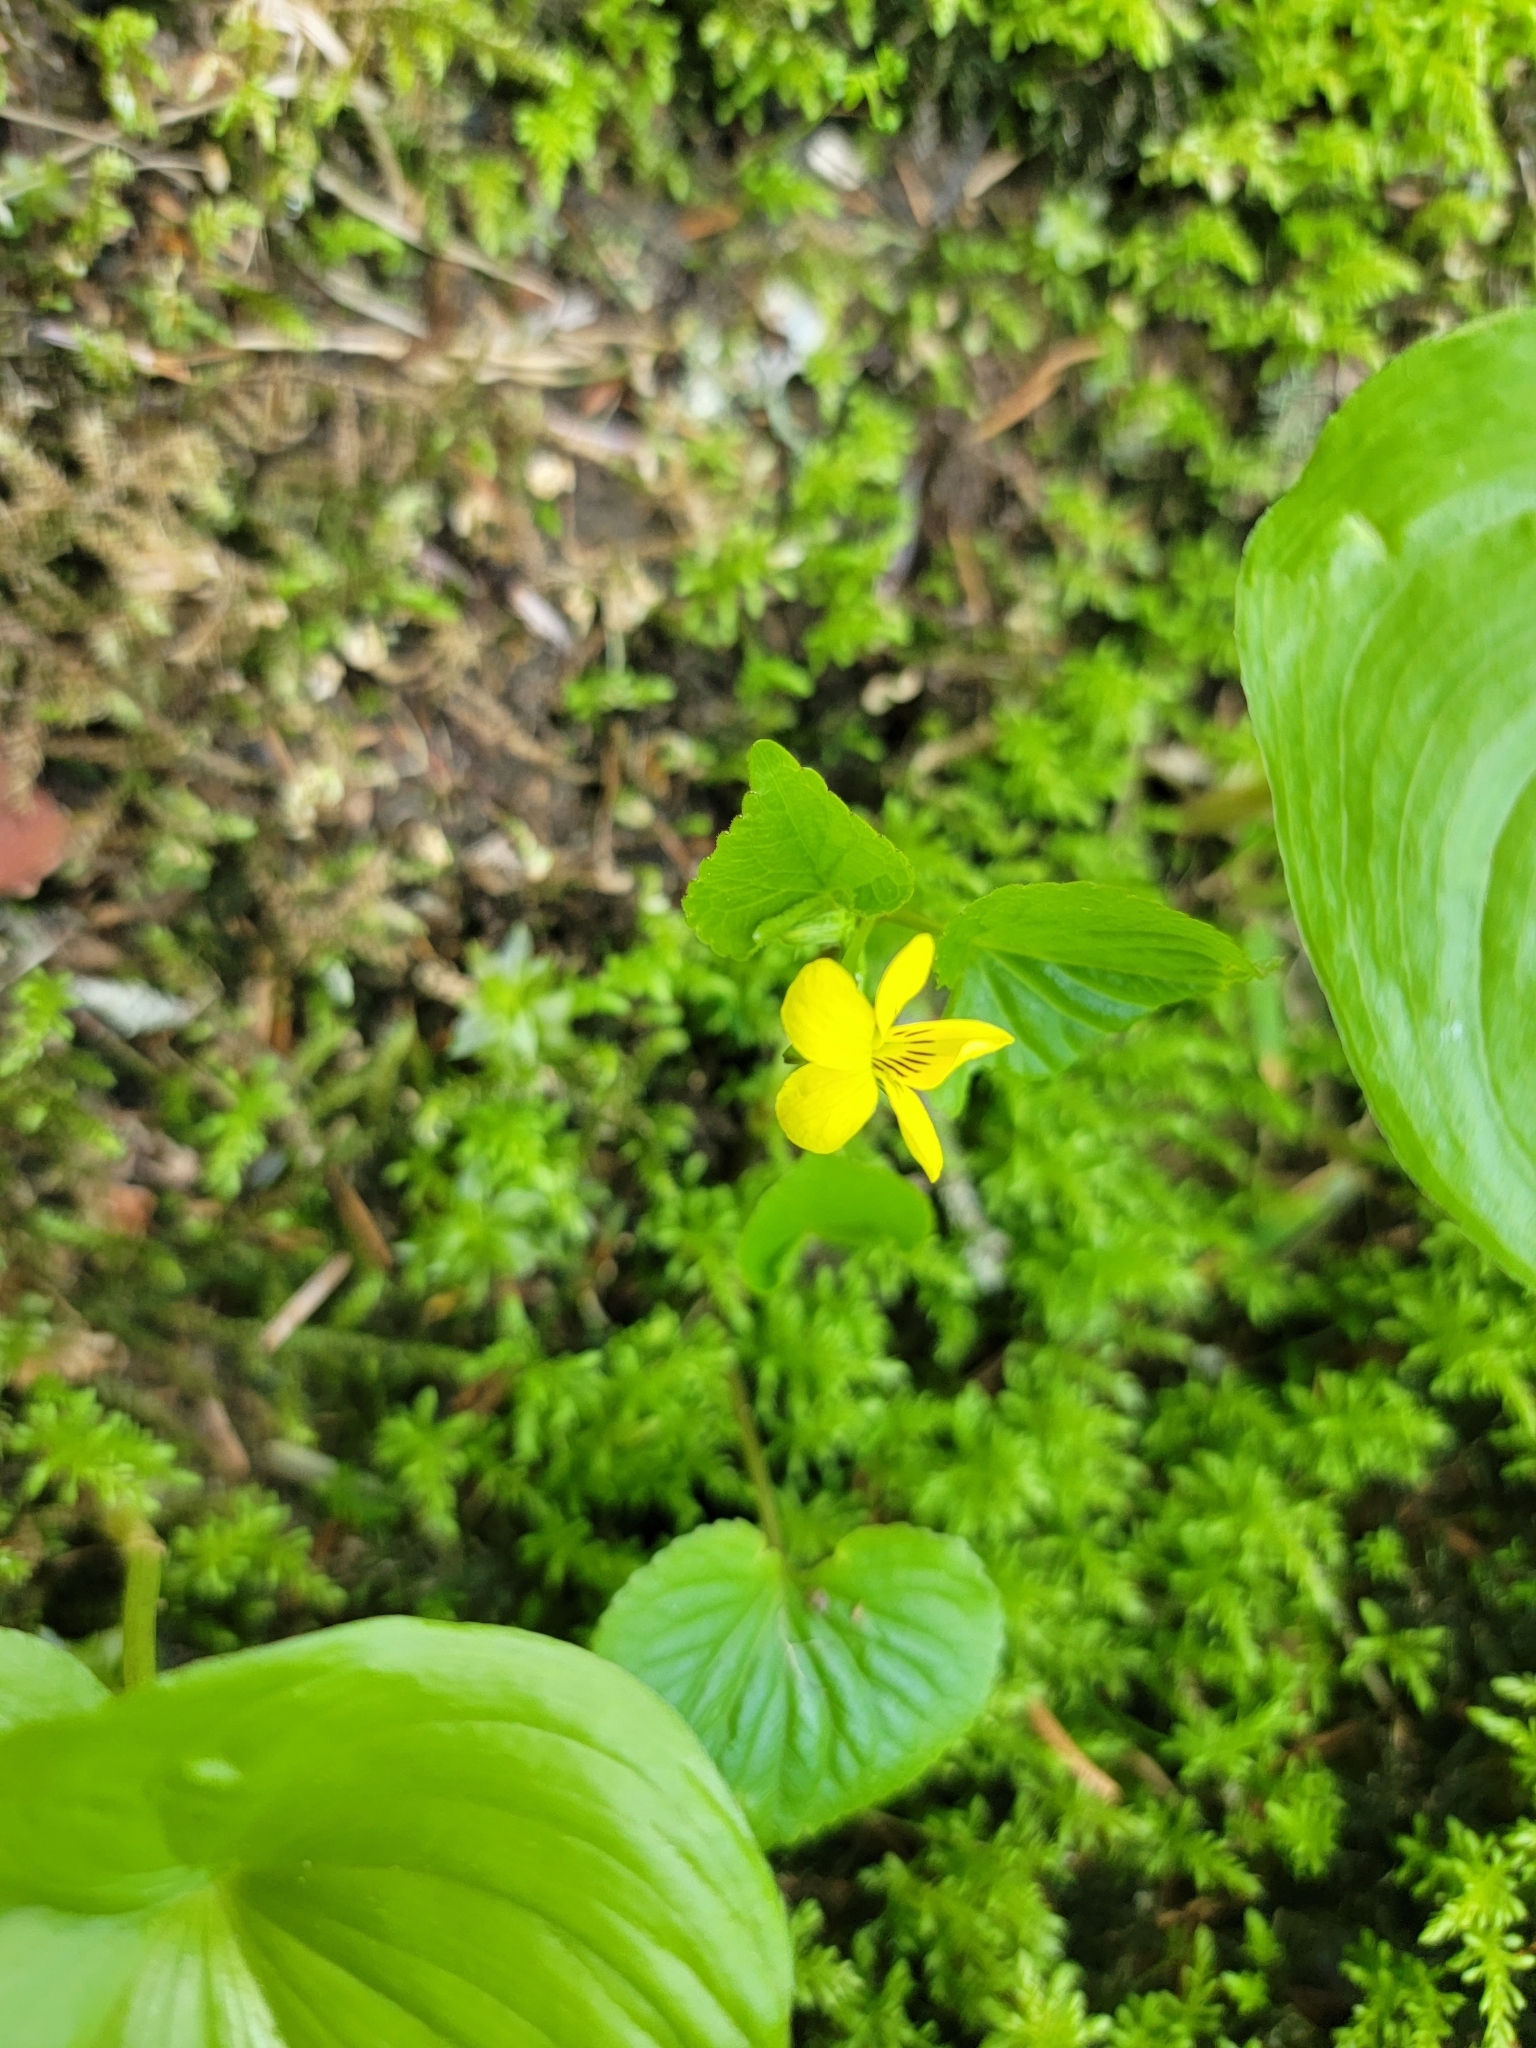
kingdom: Plantae
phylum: Tracheophyta
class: Magnoliopsida
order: Malpighiales
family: Violaceae
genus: Viola
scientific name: Viola glabella
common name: Stream violet
